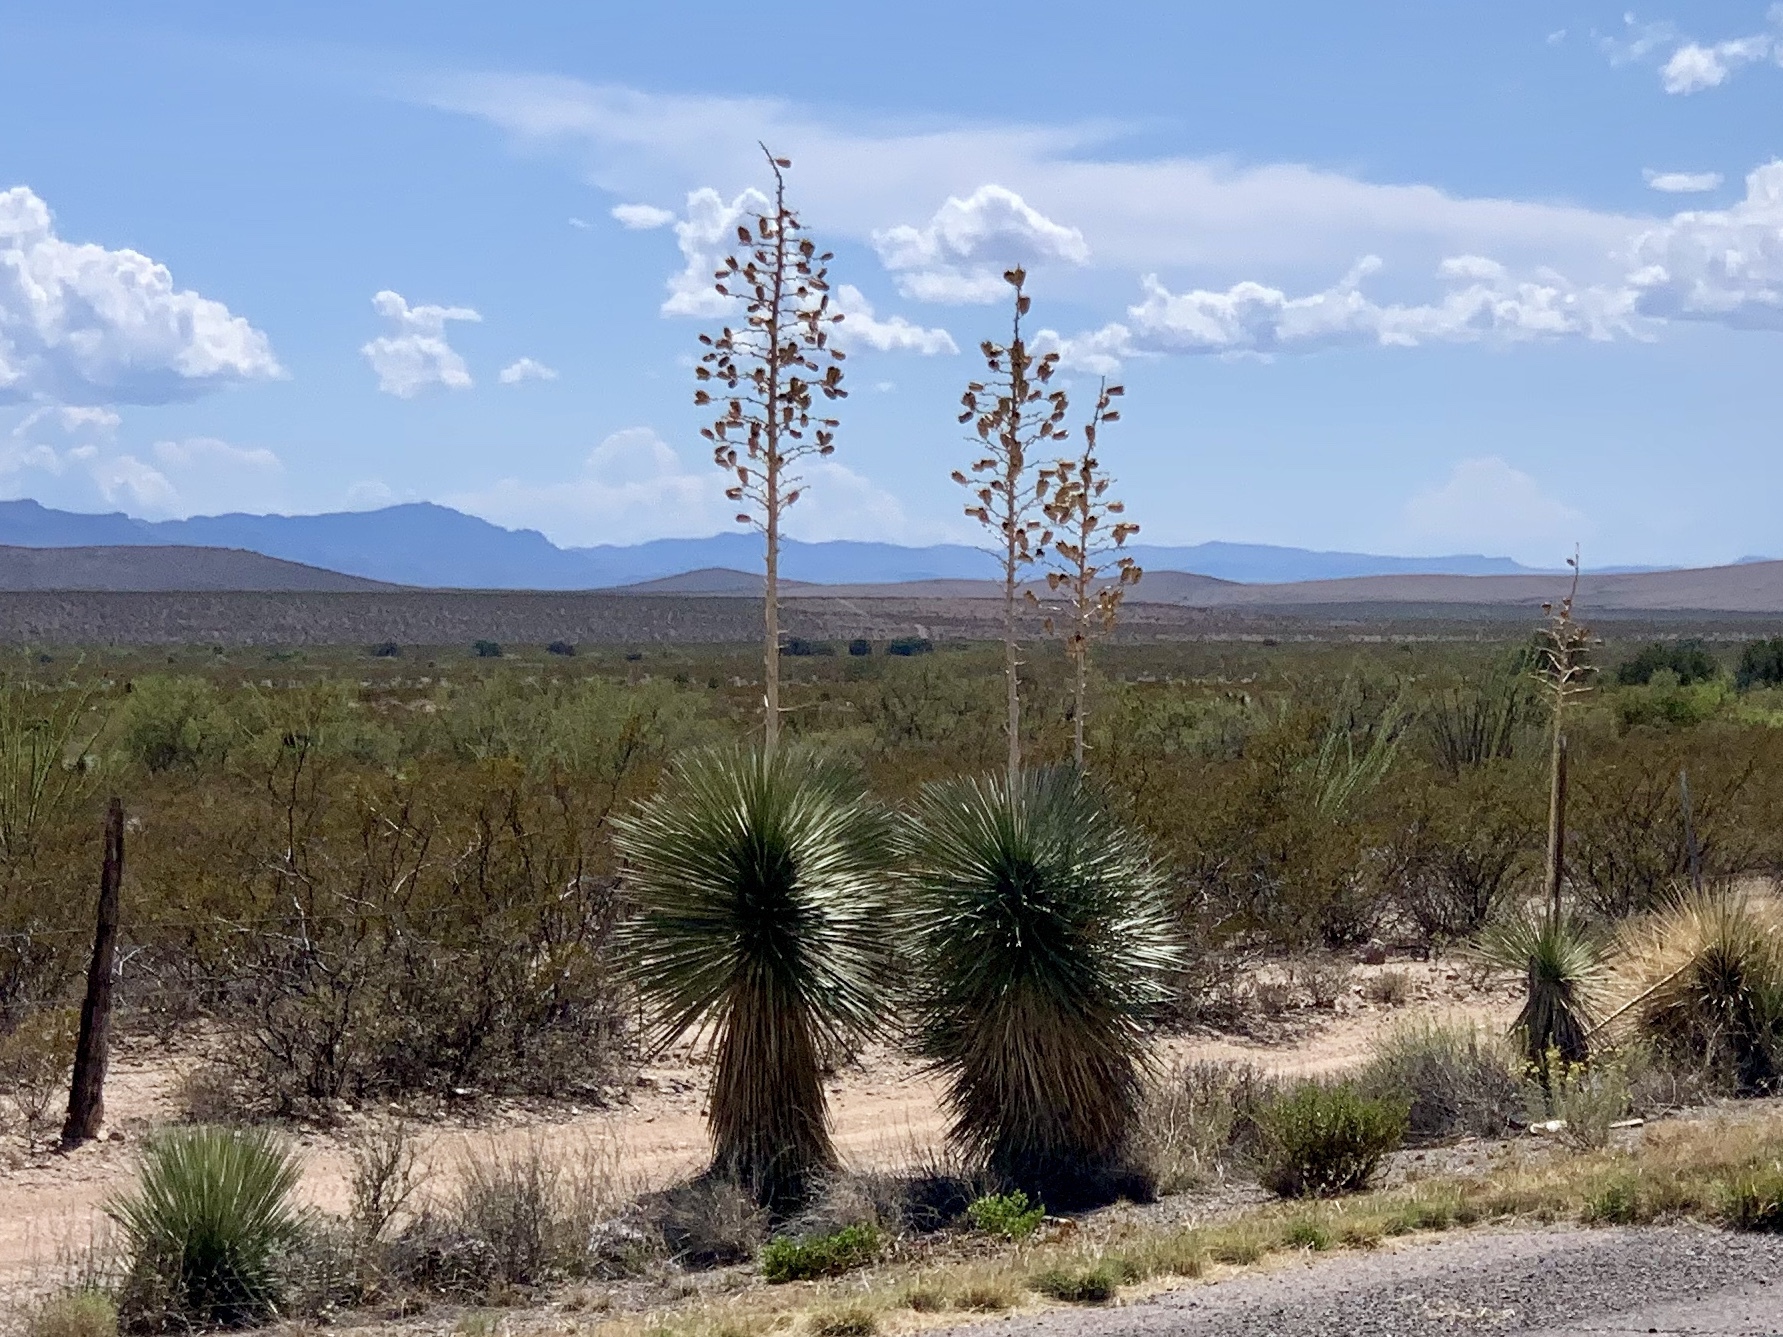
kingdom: Plantae
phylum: Tracheophyta
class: Liliopsida
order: Asparagales
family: Asparagaceae
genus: Yucca
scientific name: Yucca elata
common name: Palmella
